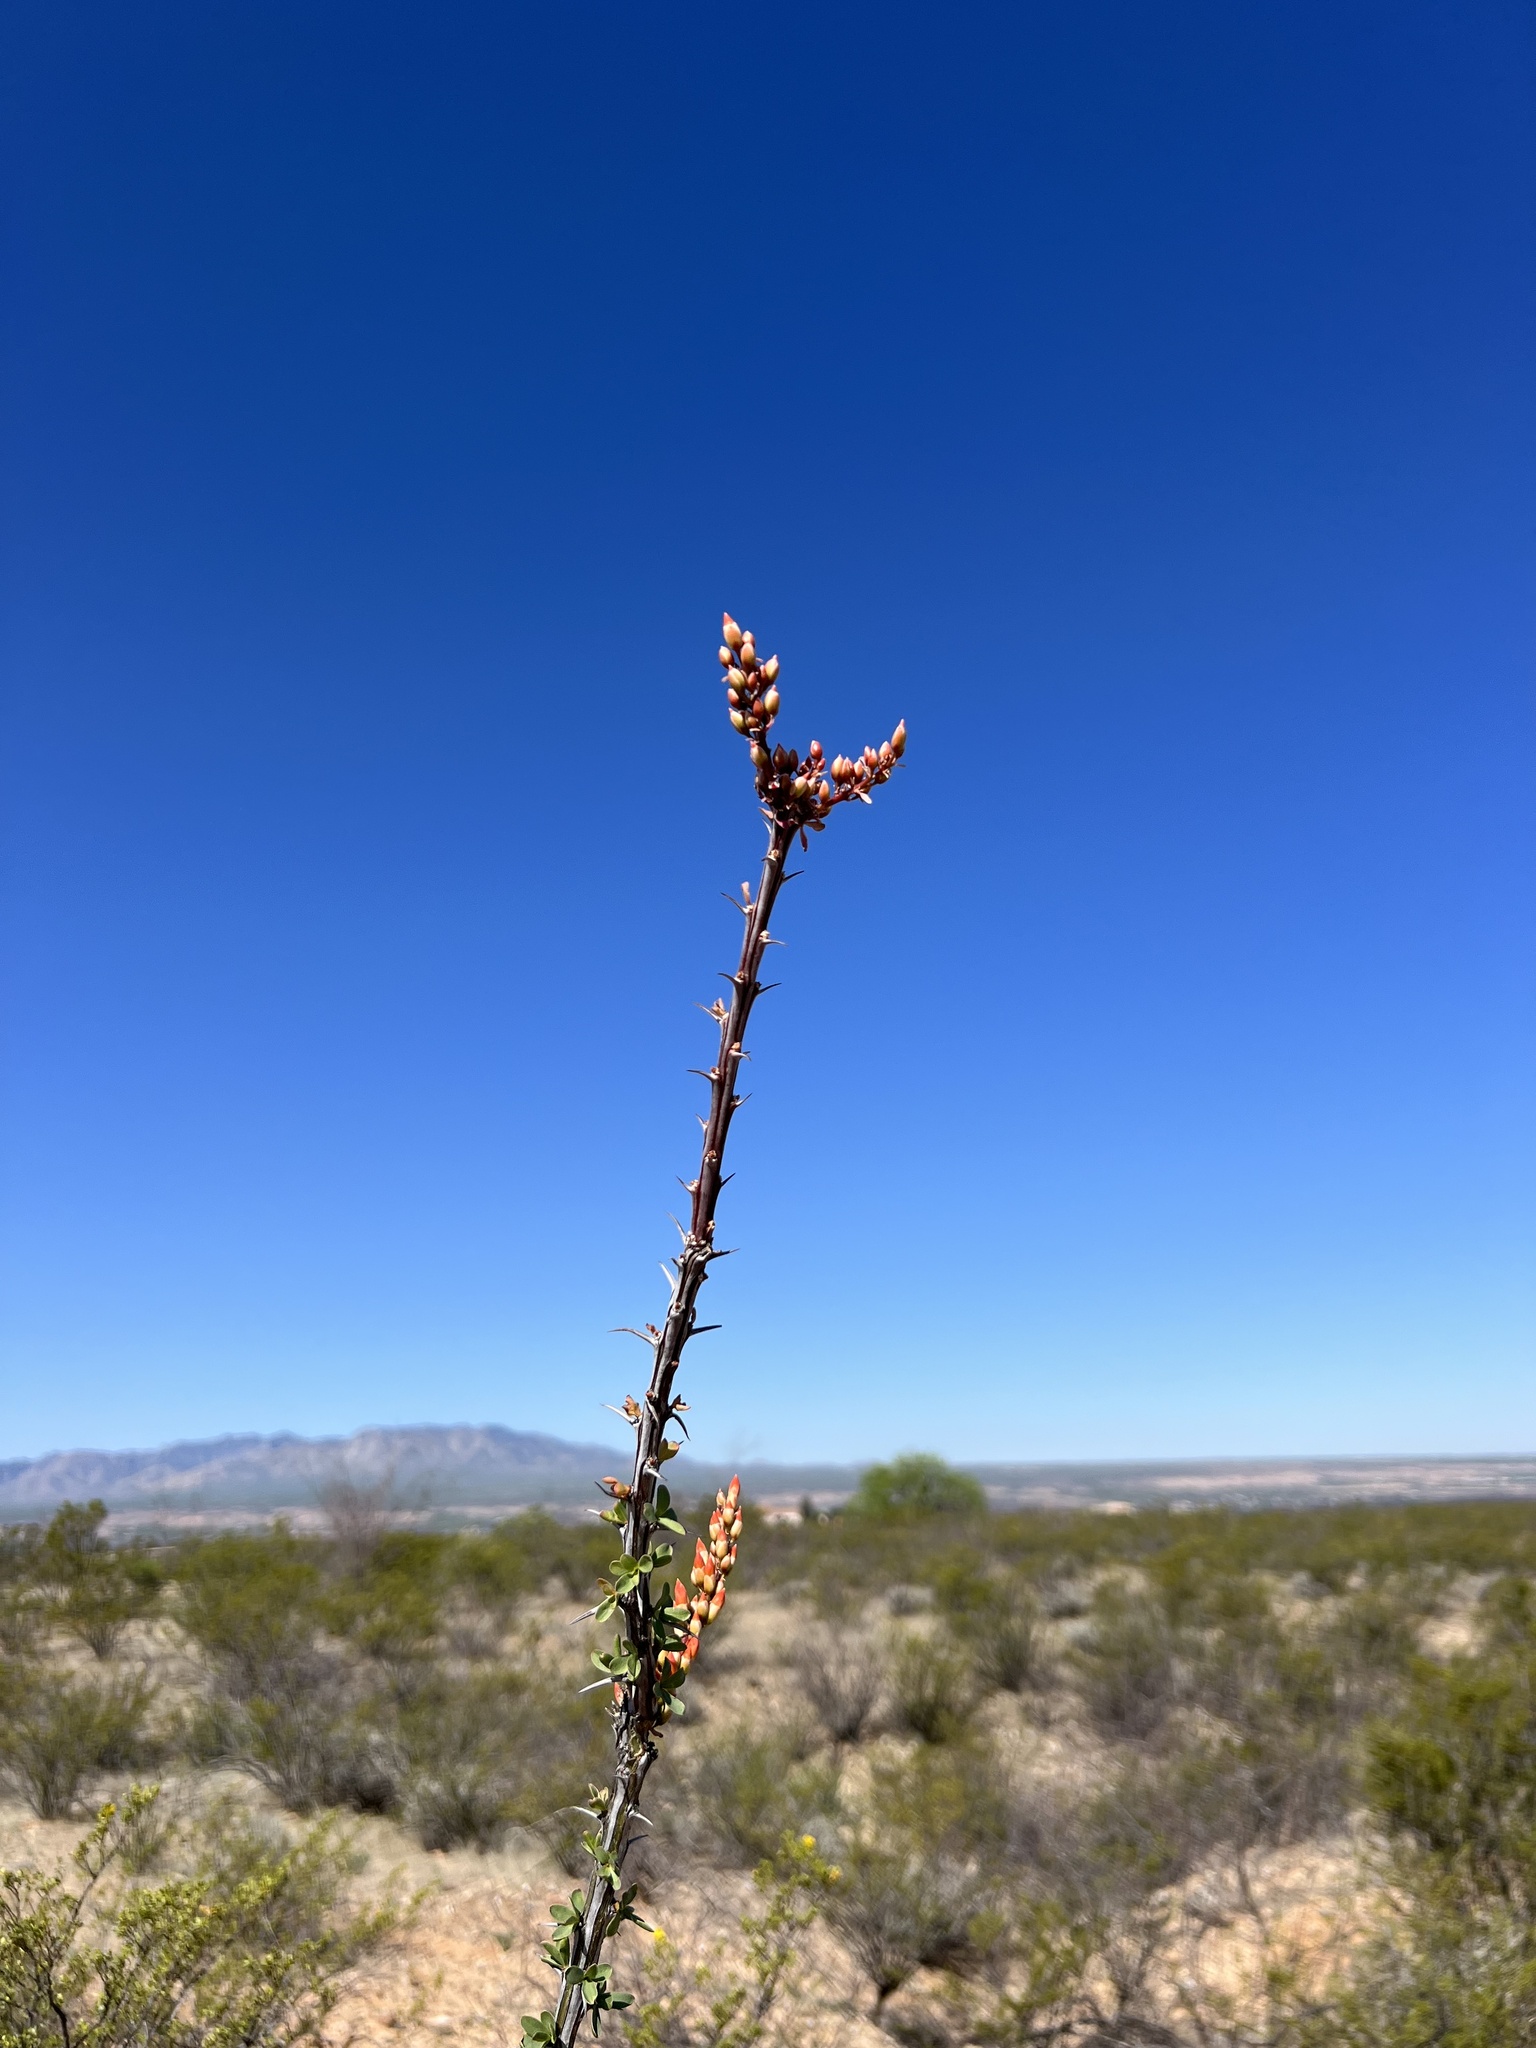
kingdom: Plantae
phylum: Tracheophyta
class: Magnoliopsida
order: Ericales
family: Fouquieriaceae
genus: Fouquieria
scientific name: Fouquieria splendens
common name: Vine-cactus
